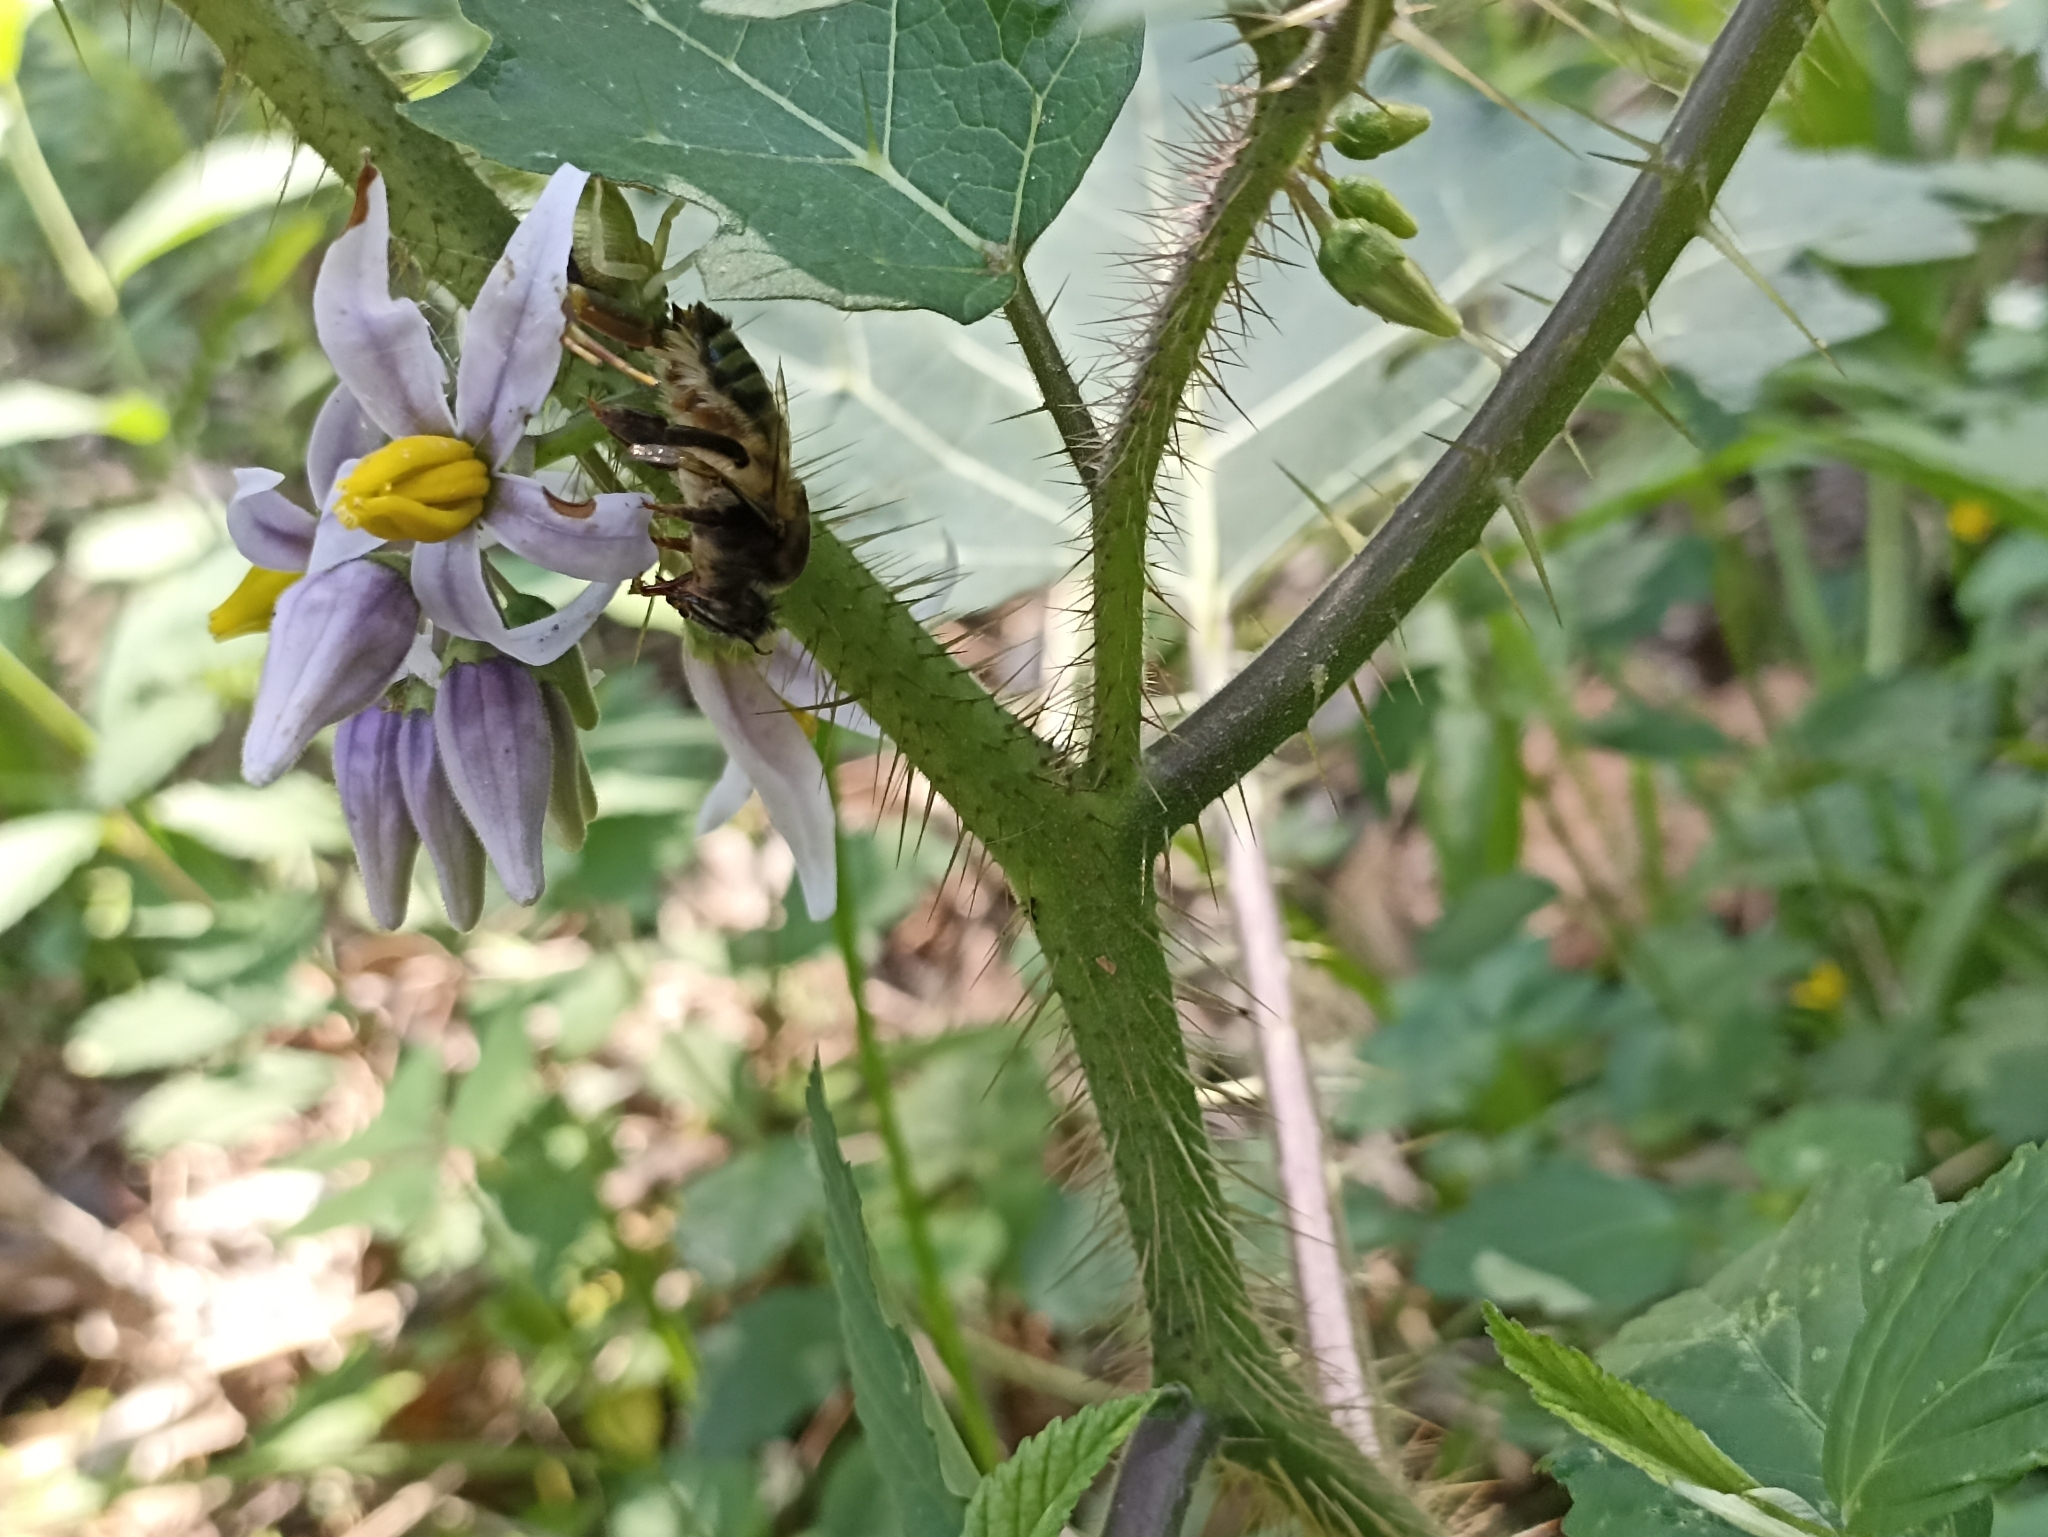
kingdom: Animalia
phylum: Arthropoda
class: Arachnida
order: Araneae
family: Thomisidae
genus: Runcinioides
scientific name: Runcinioides litteratus
